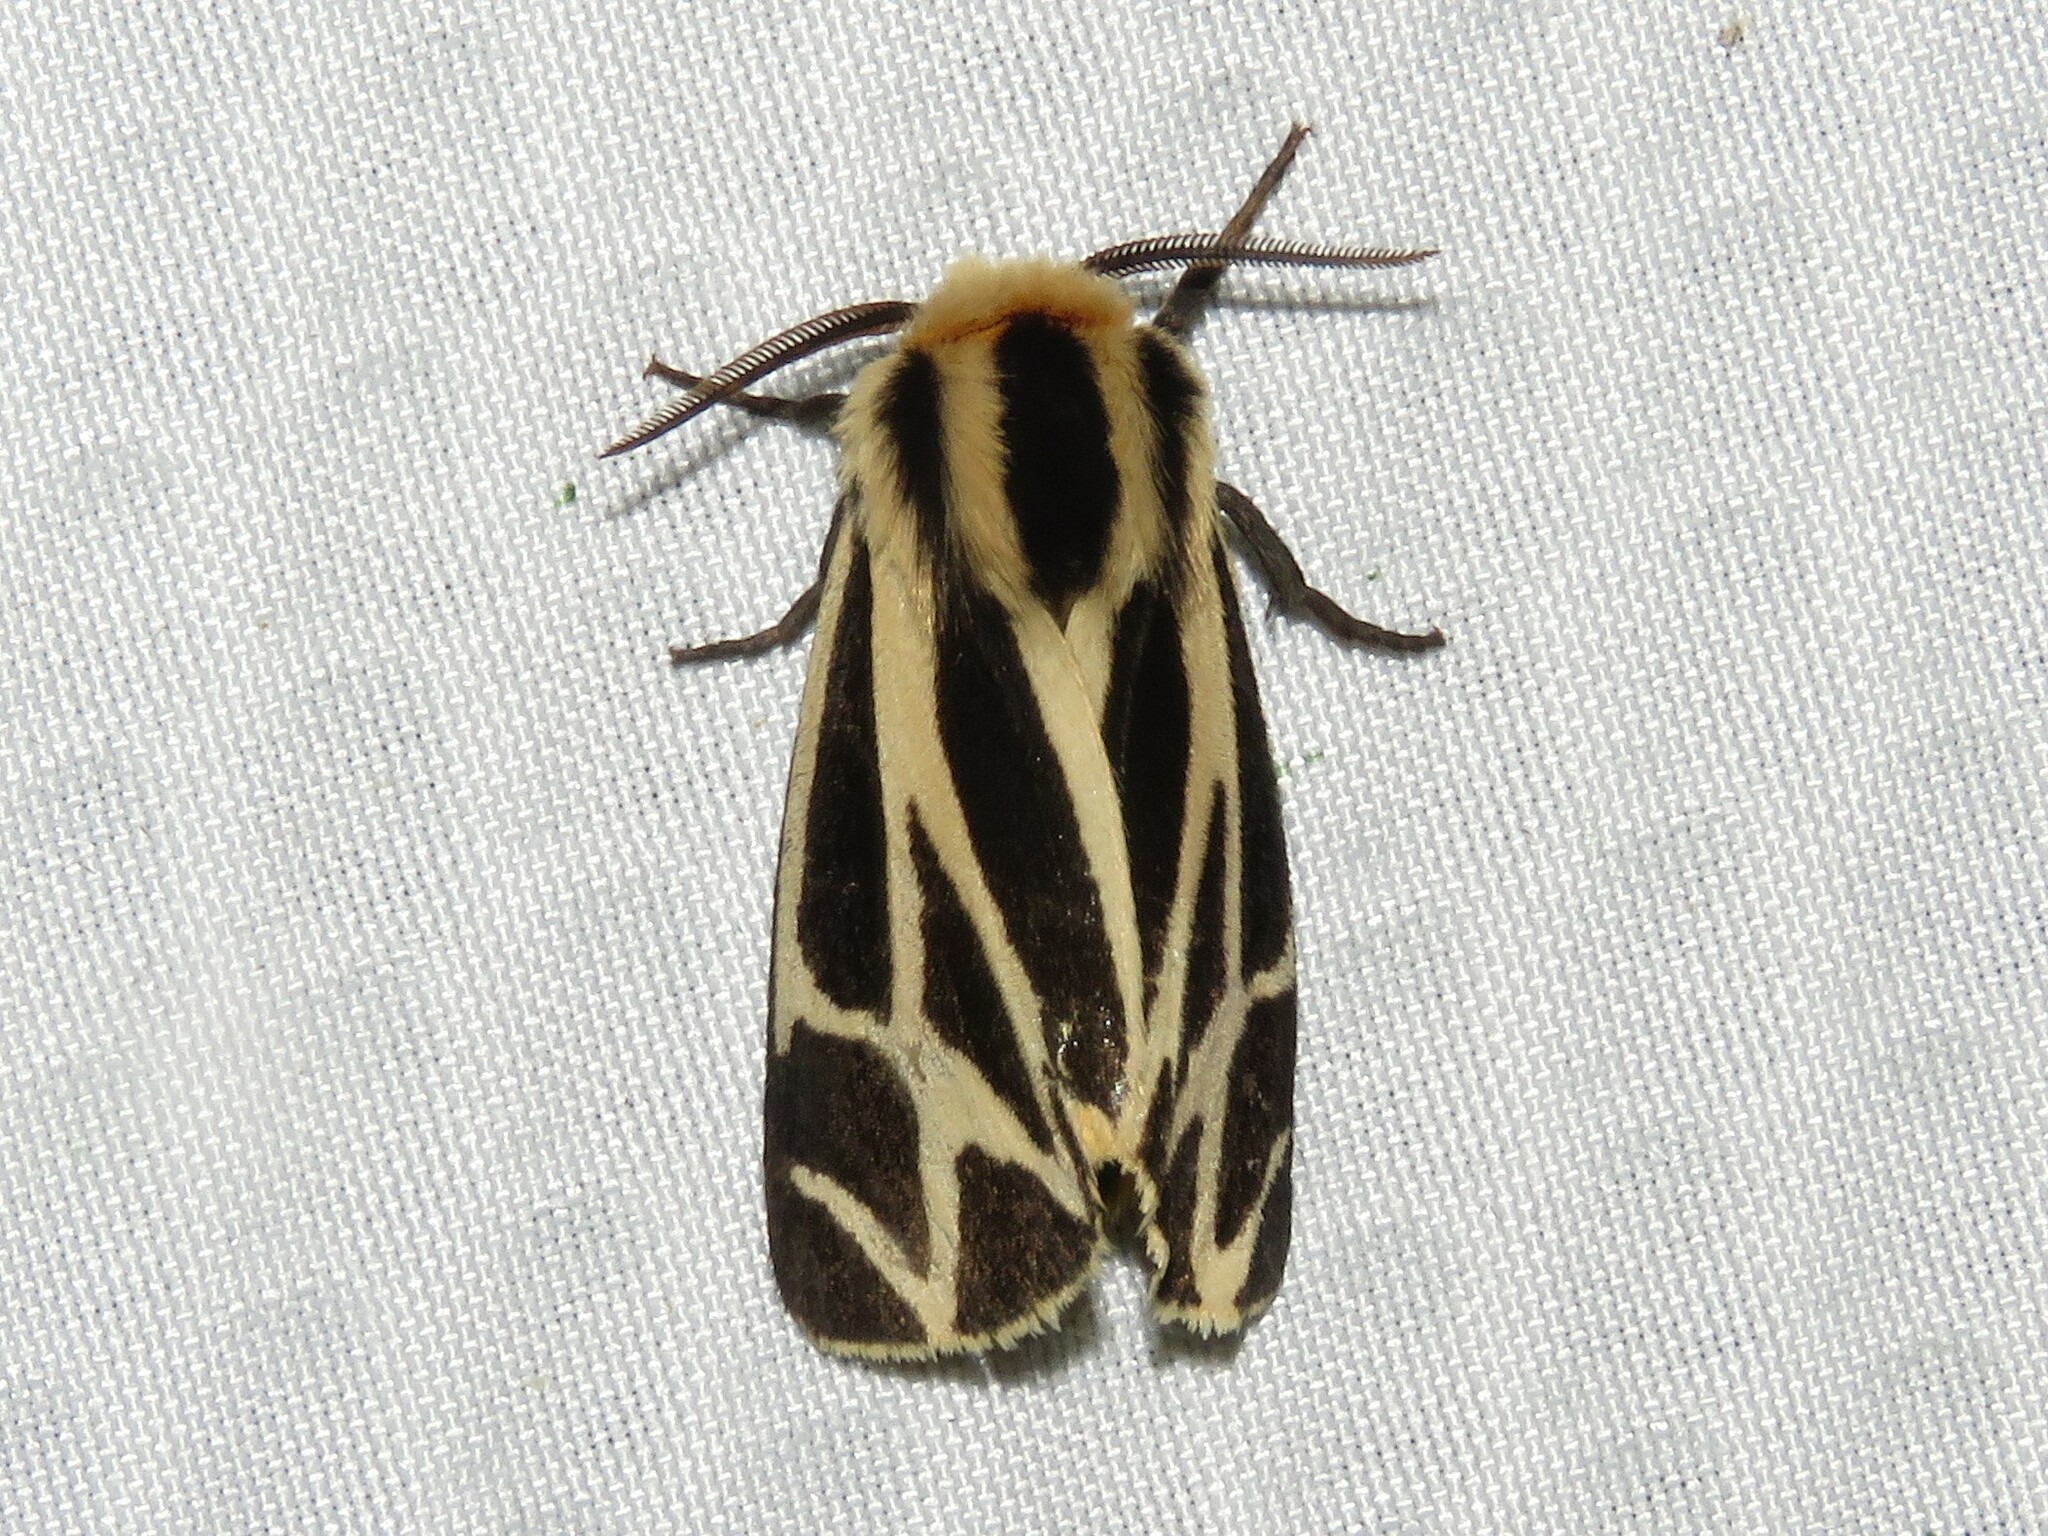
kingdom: Animalia
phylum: Arthropoda
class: Insecta
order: Lepidoptera
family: Erebidae
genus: Apantesis
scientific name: Apantesis phalerata
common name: Harnessed tiger moth
